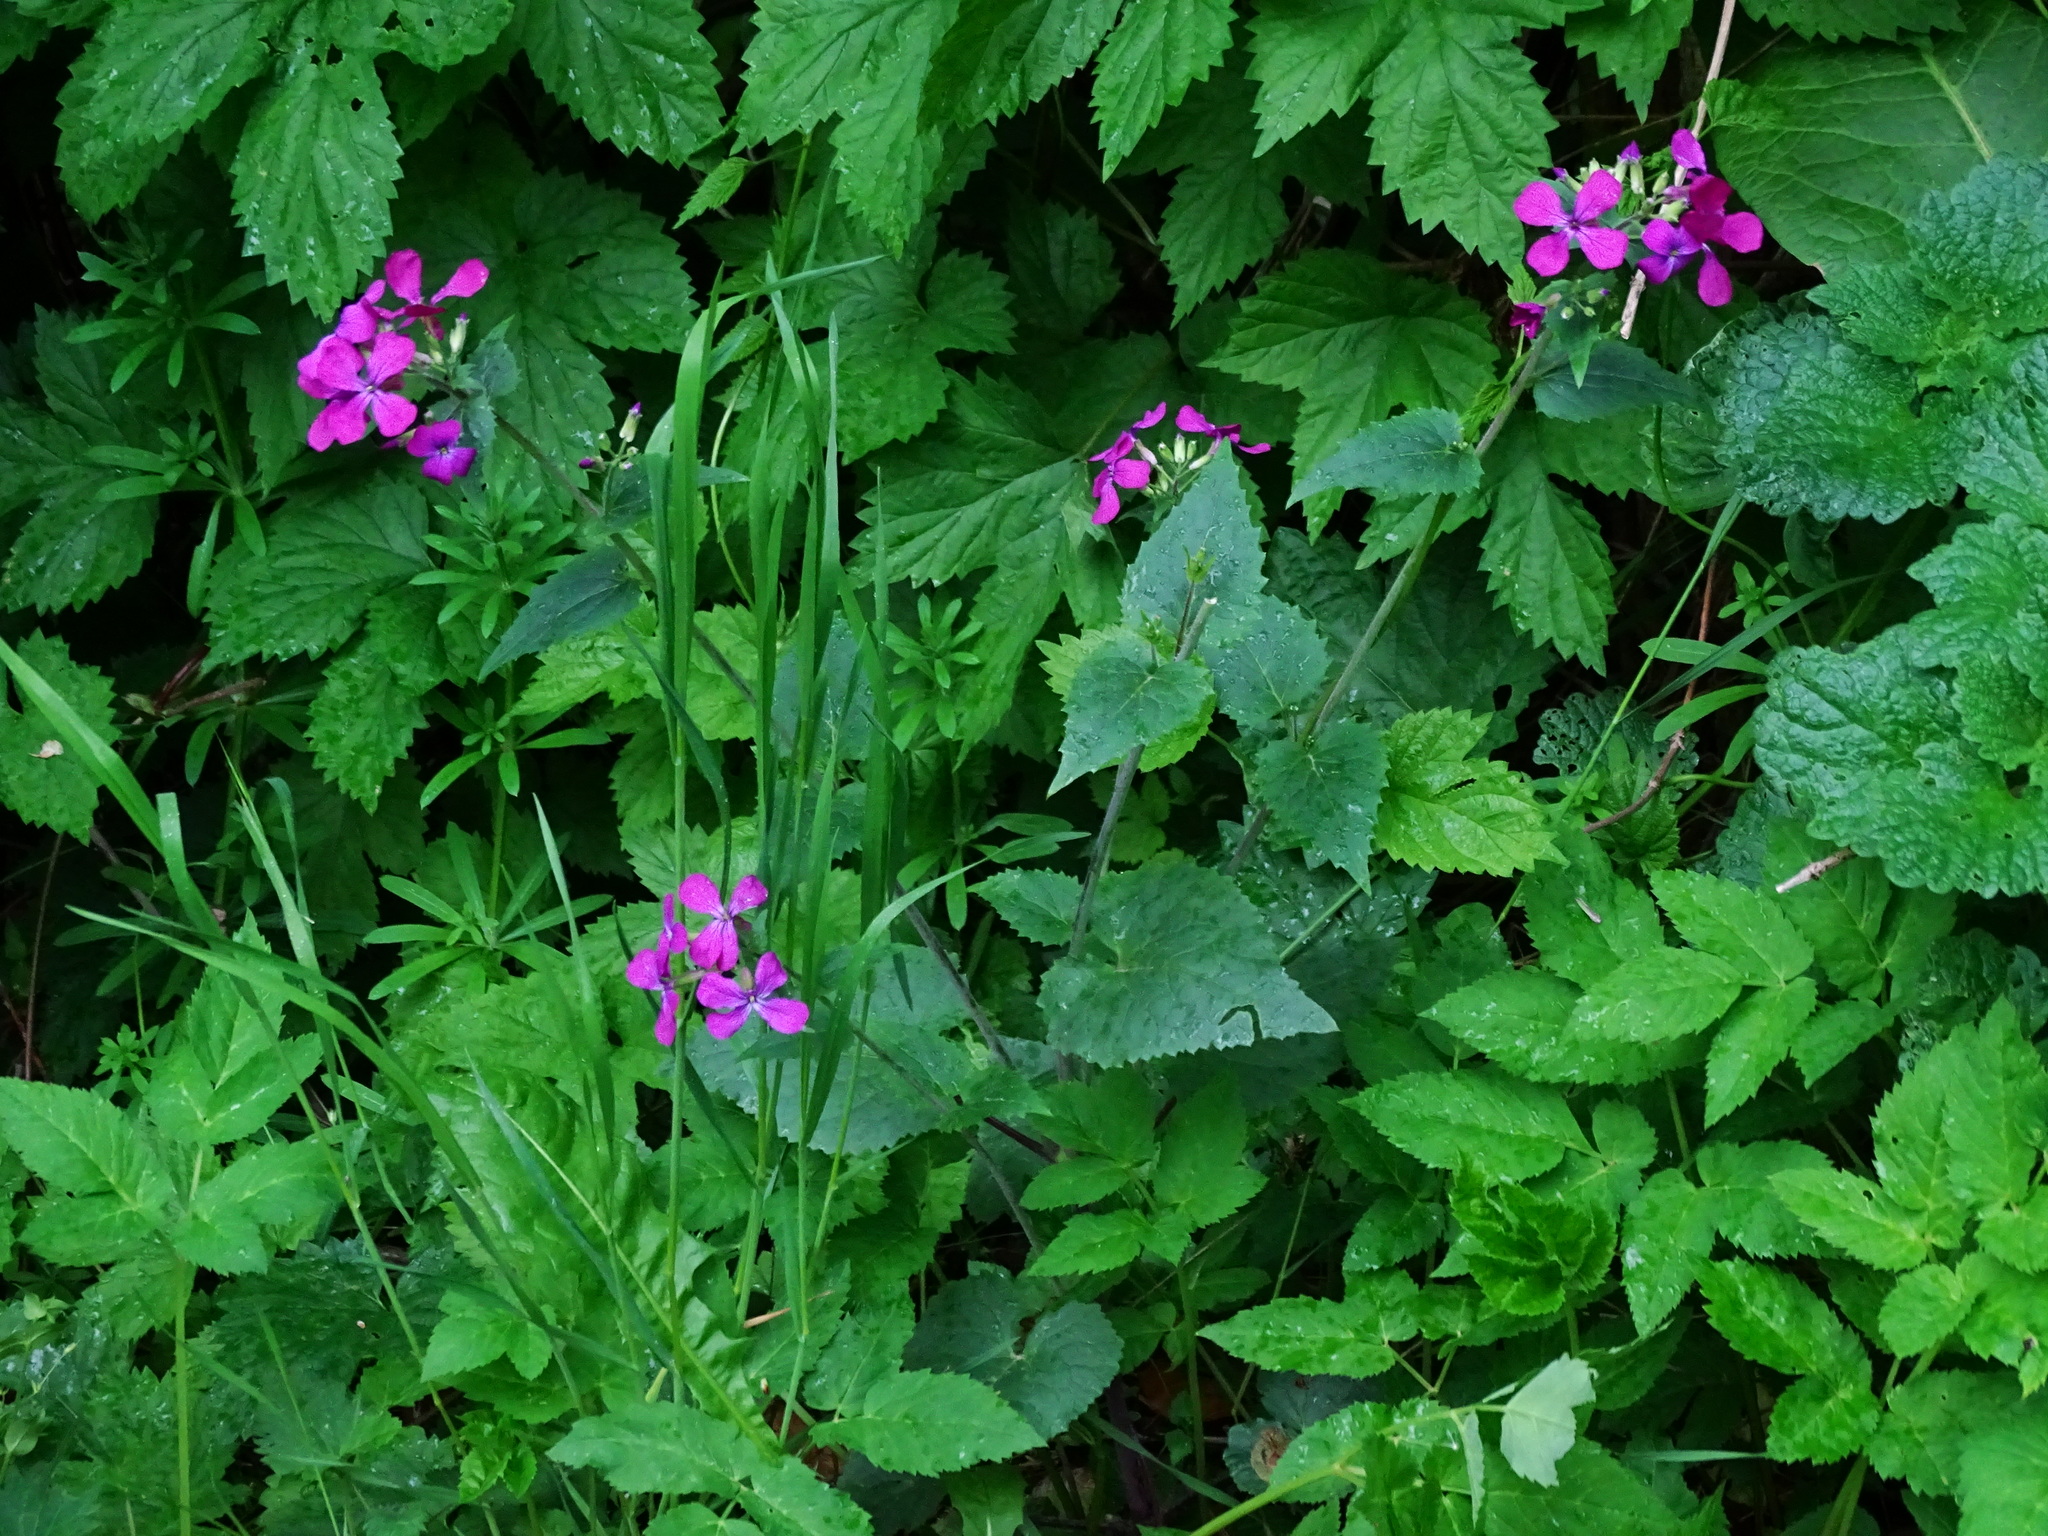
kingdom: Plantae
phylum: Tracheophyta
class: Magnoliopsida
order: Brassicales
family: Brassicaceae
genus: Lunaria
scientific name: Lunaria annua
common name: Honesty
